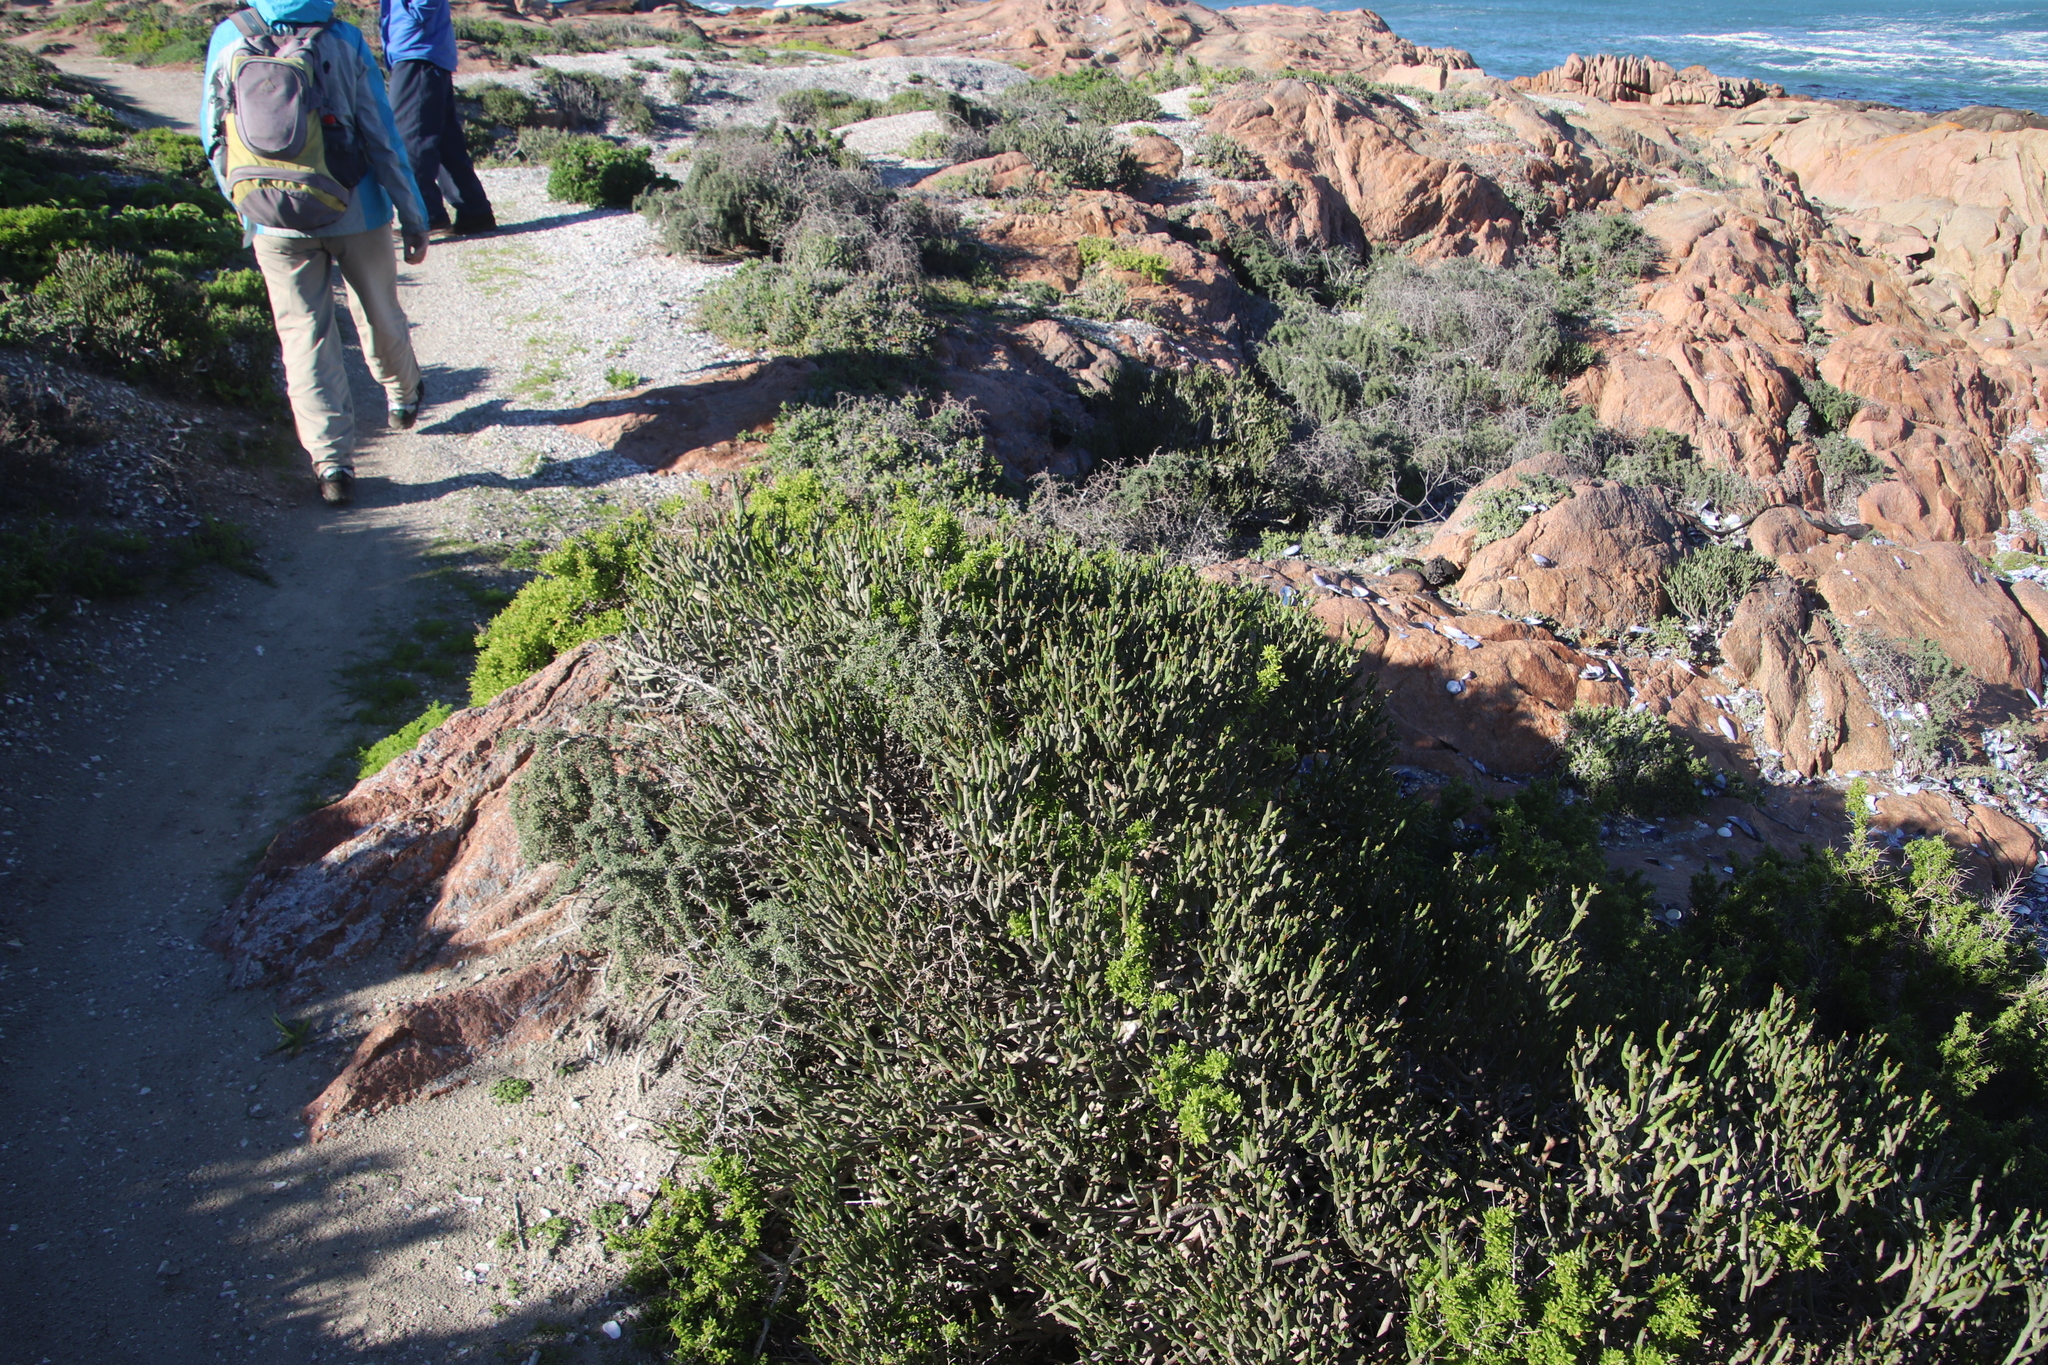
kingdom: Plantae
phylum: Tracheophyta
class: Magnoliopsida
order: Malpighiales
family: Euphorbiaceae
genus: Euphorbia
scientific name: Euphorbia burmanni
